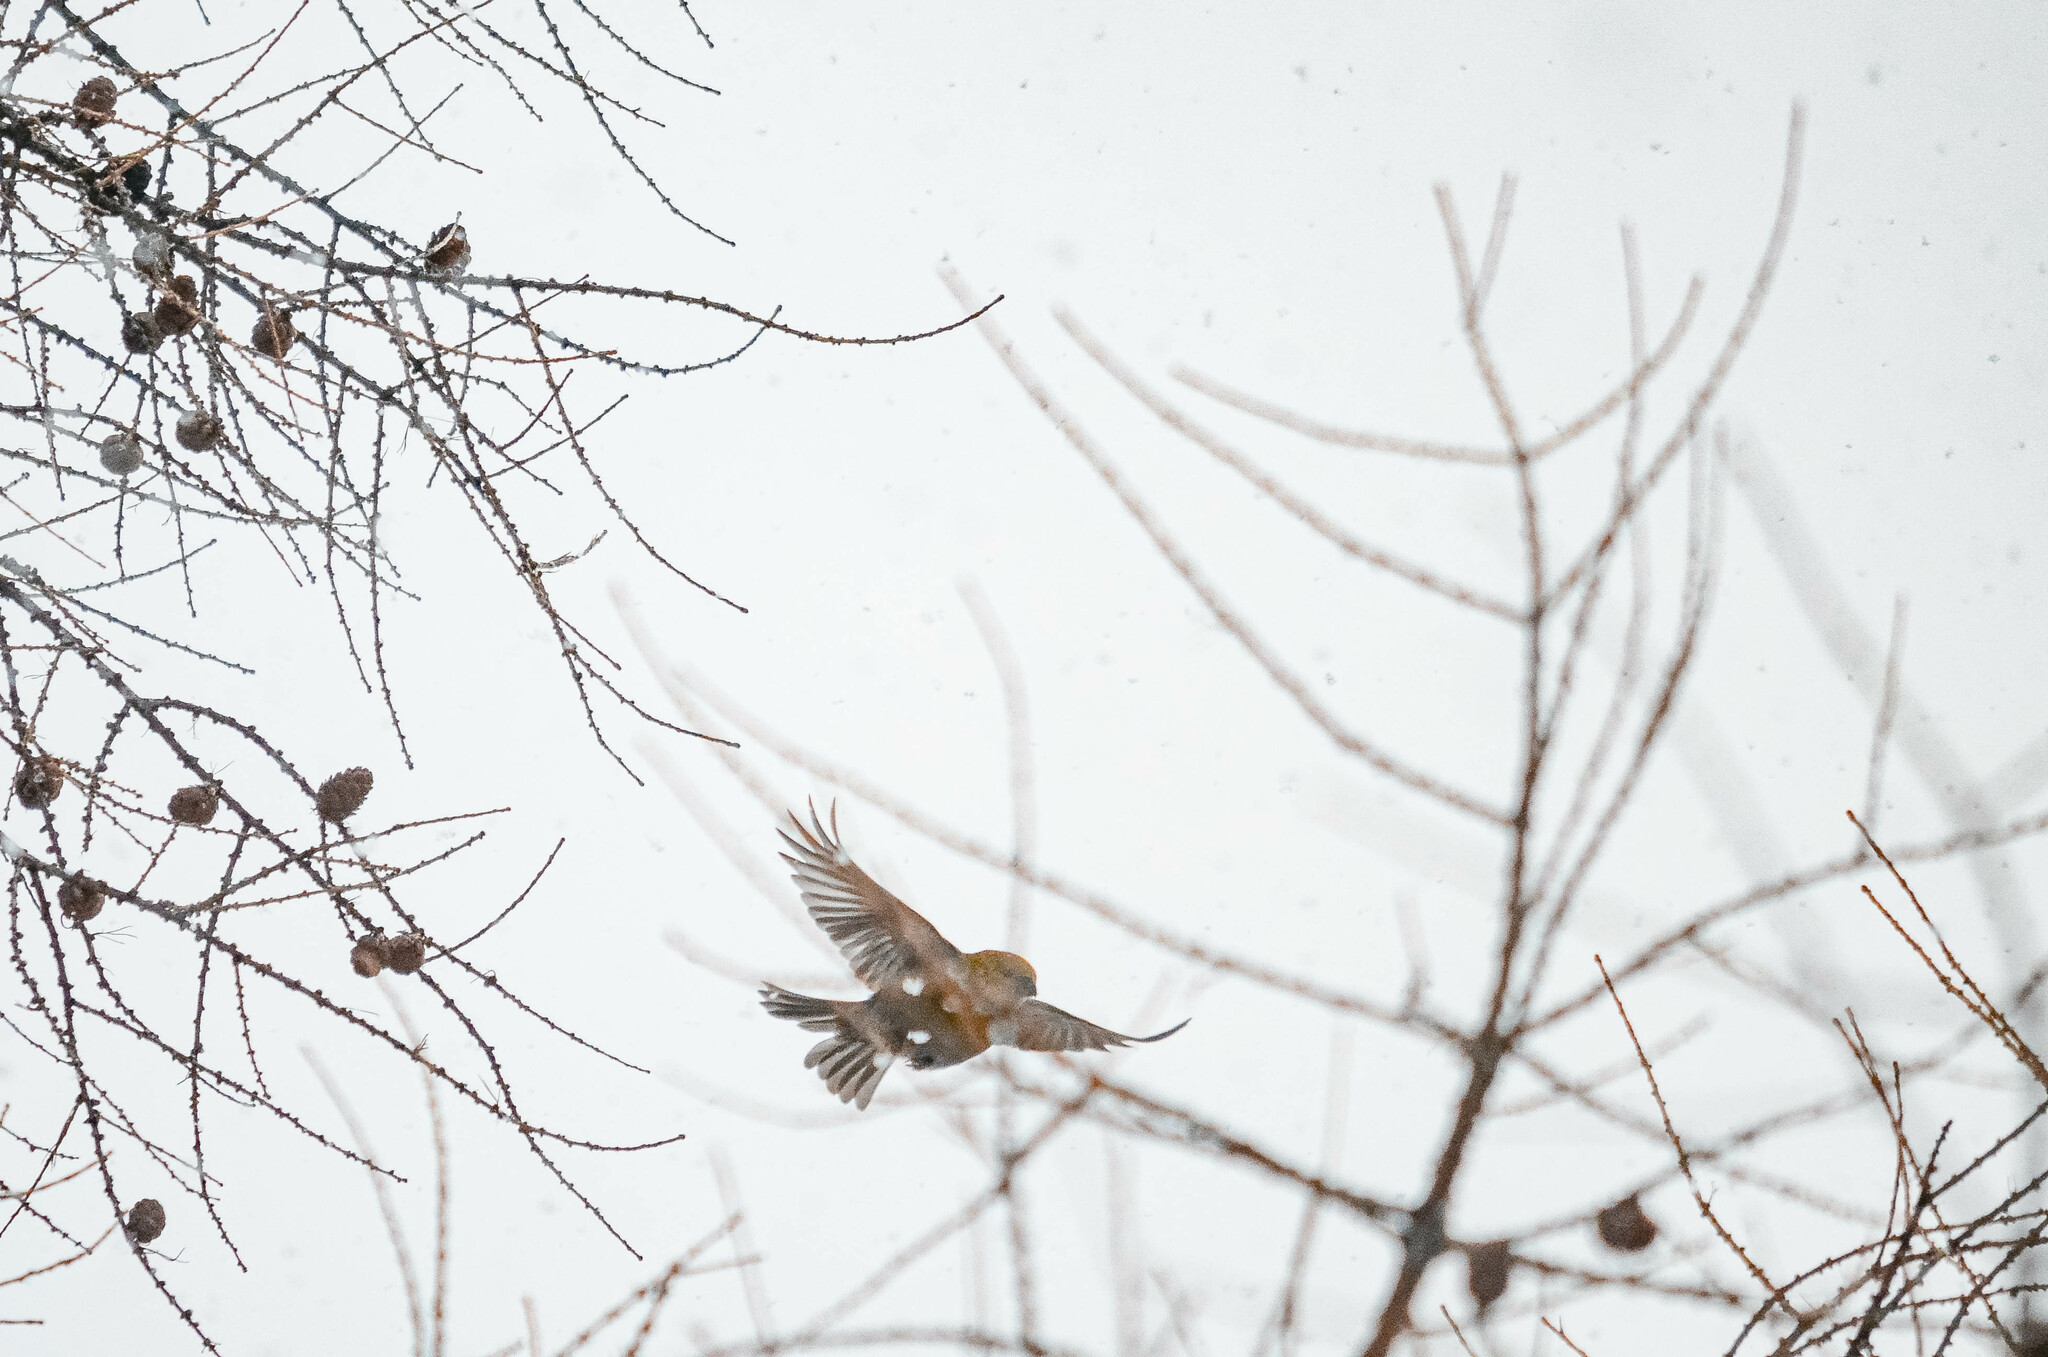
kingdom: Animalia
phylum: Chordata
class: Aves
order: Passeriformes
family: Fringillidae
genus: Pinicola
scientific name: Pinicola enucleator
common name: Pine grosbeak
